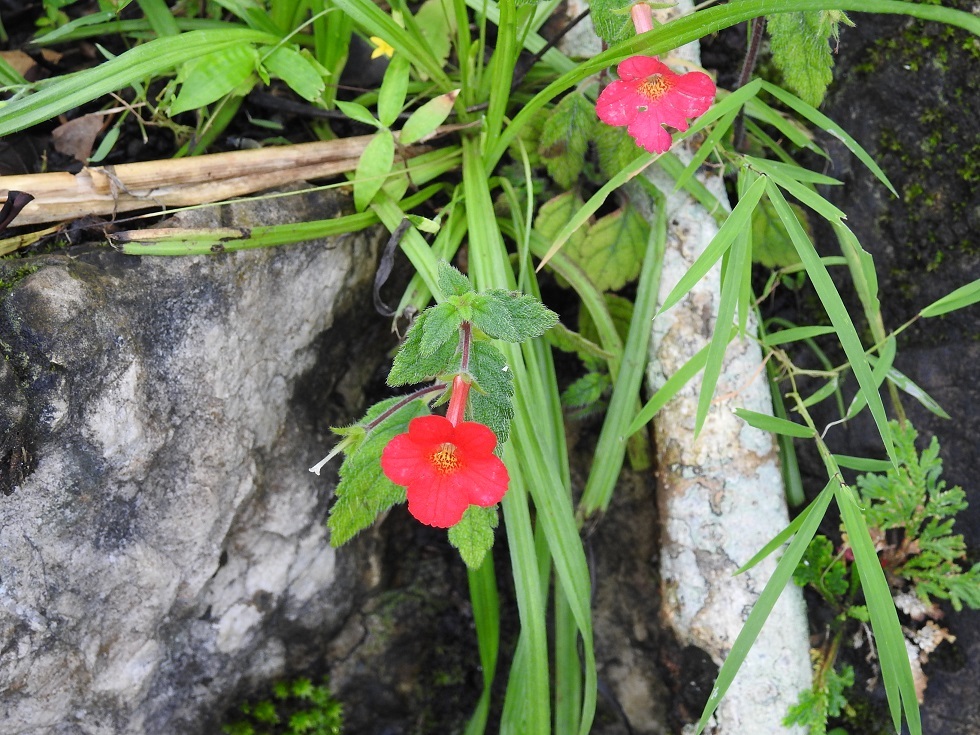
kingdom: Plantae
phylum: Tracheophyta
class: Magnoliopsida
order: Lamiales
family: Gesneriaceae
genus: Achimenes
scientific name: Achimenes erecta
